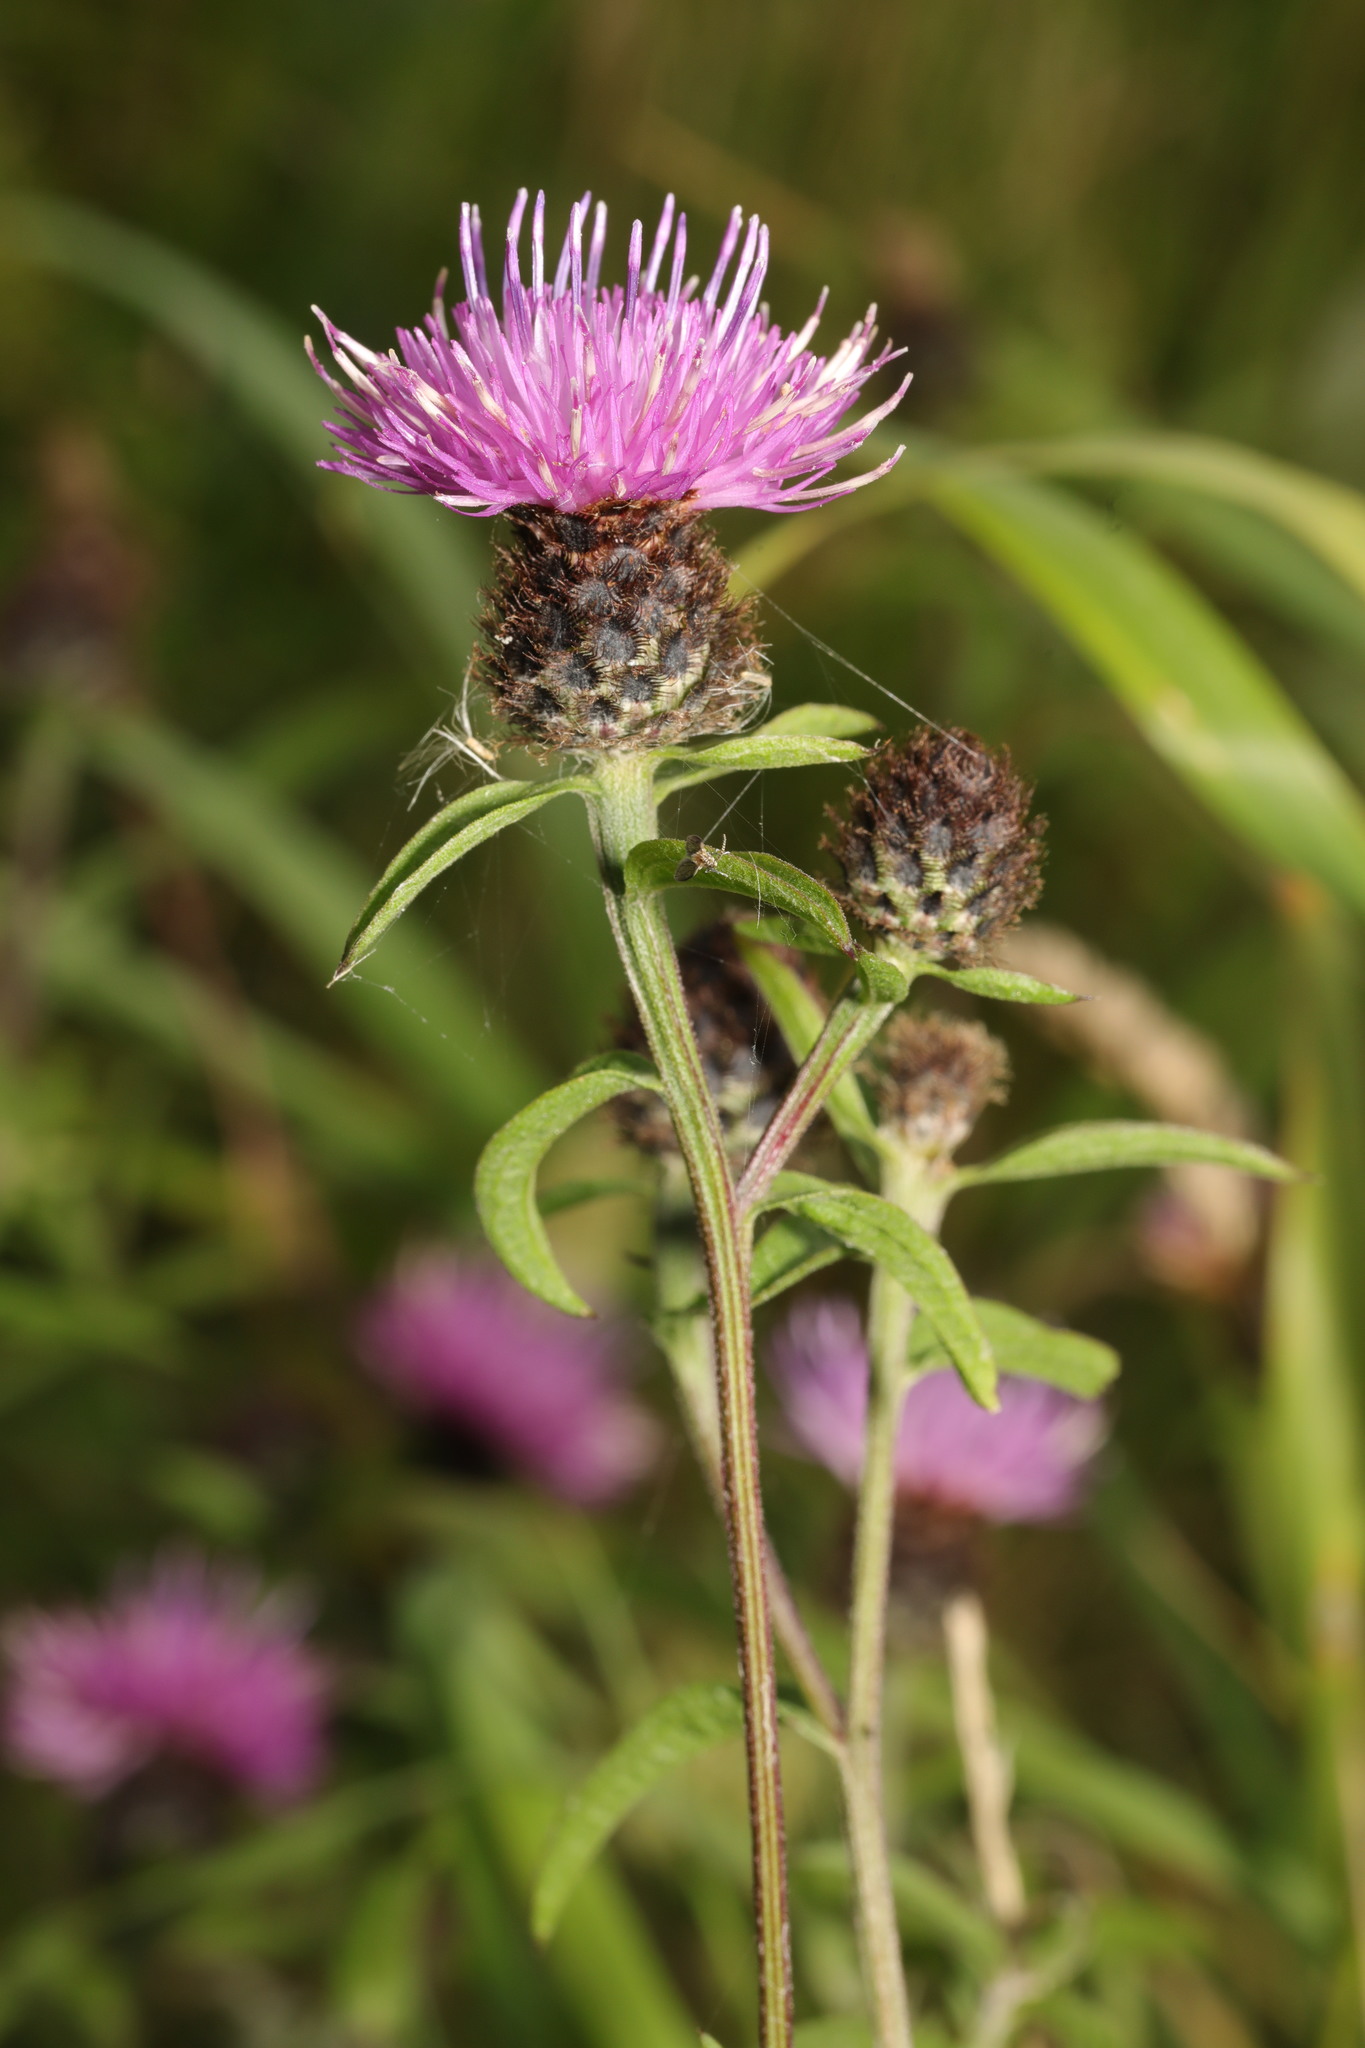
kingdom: Plantae
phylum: Tracheophyta
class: Magnoliopsida
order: Asterales
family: Asteraceae
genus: Centaurea
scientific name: Centaurea nigra
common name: Lesser knapweed
